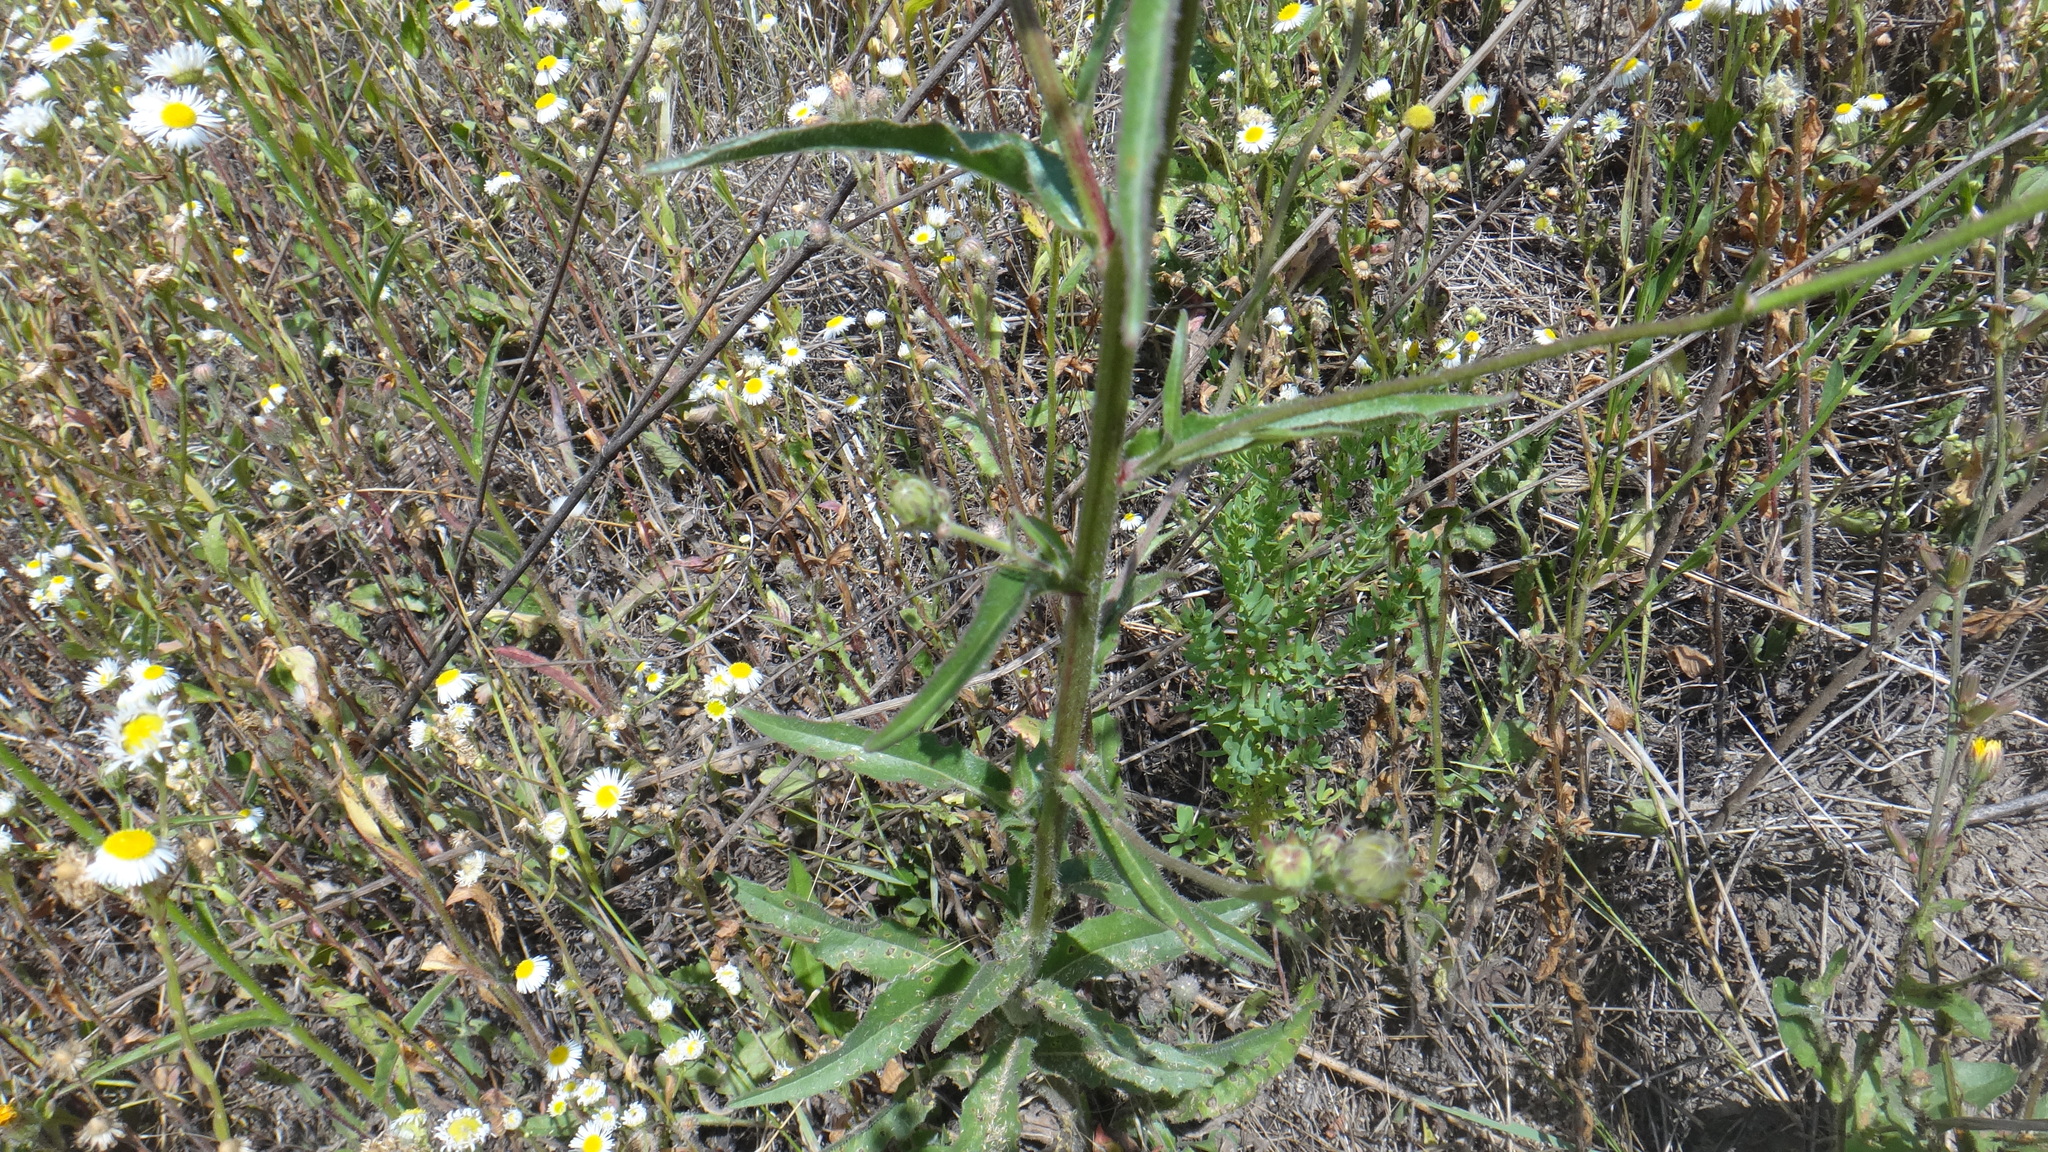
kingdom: Plantae
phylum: Tracheophyta
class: Magnoliopsida
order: Asterales
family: Asteraceae
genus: Picris
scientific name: Picris hieracioides
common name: Hawkweed oxtongue
